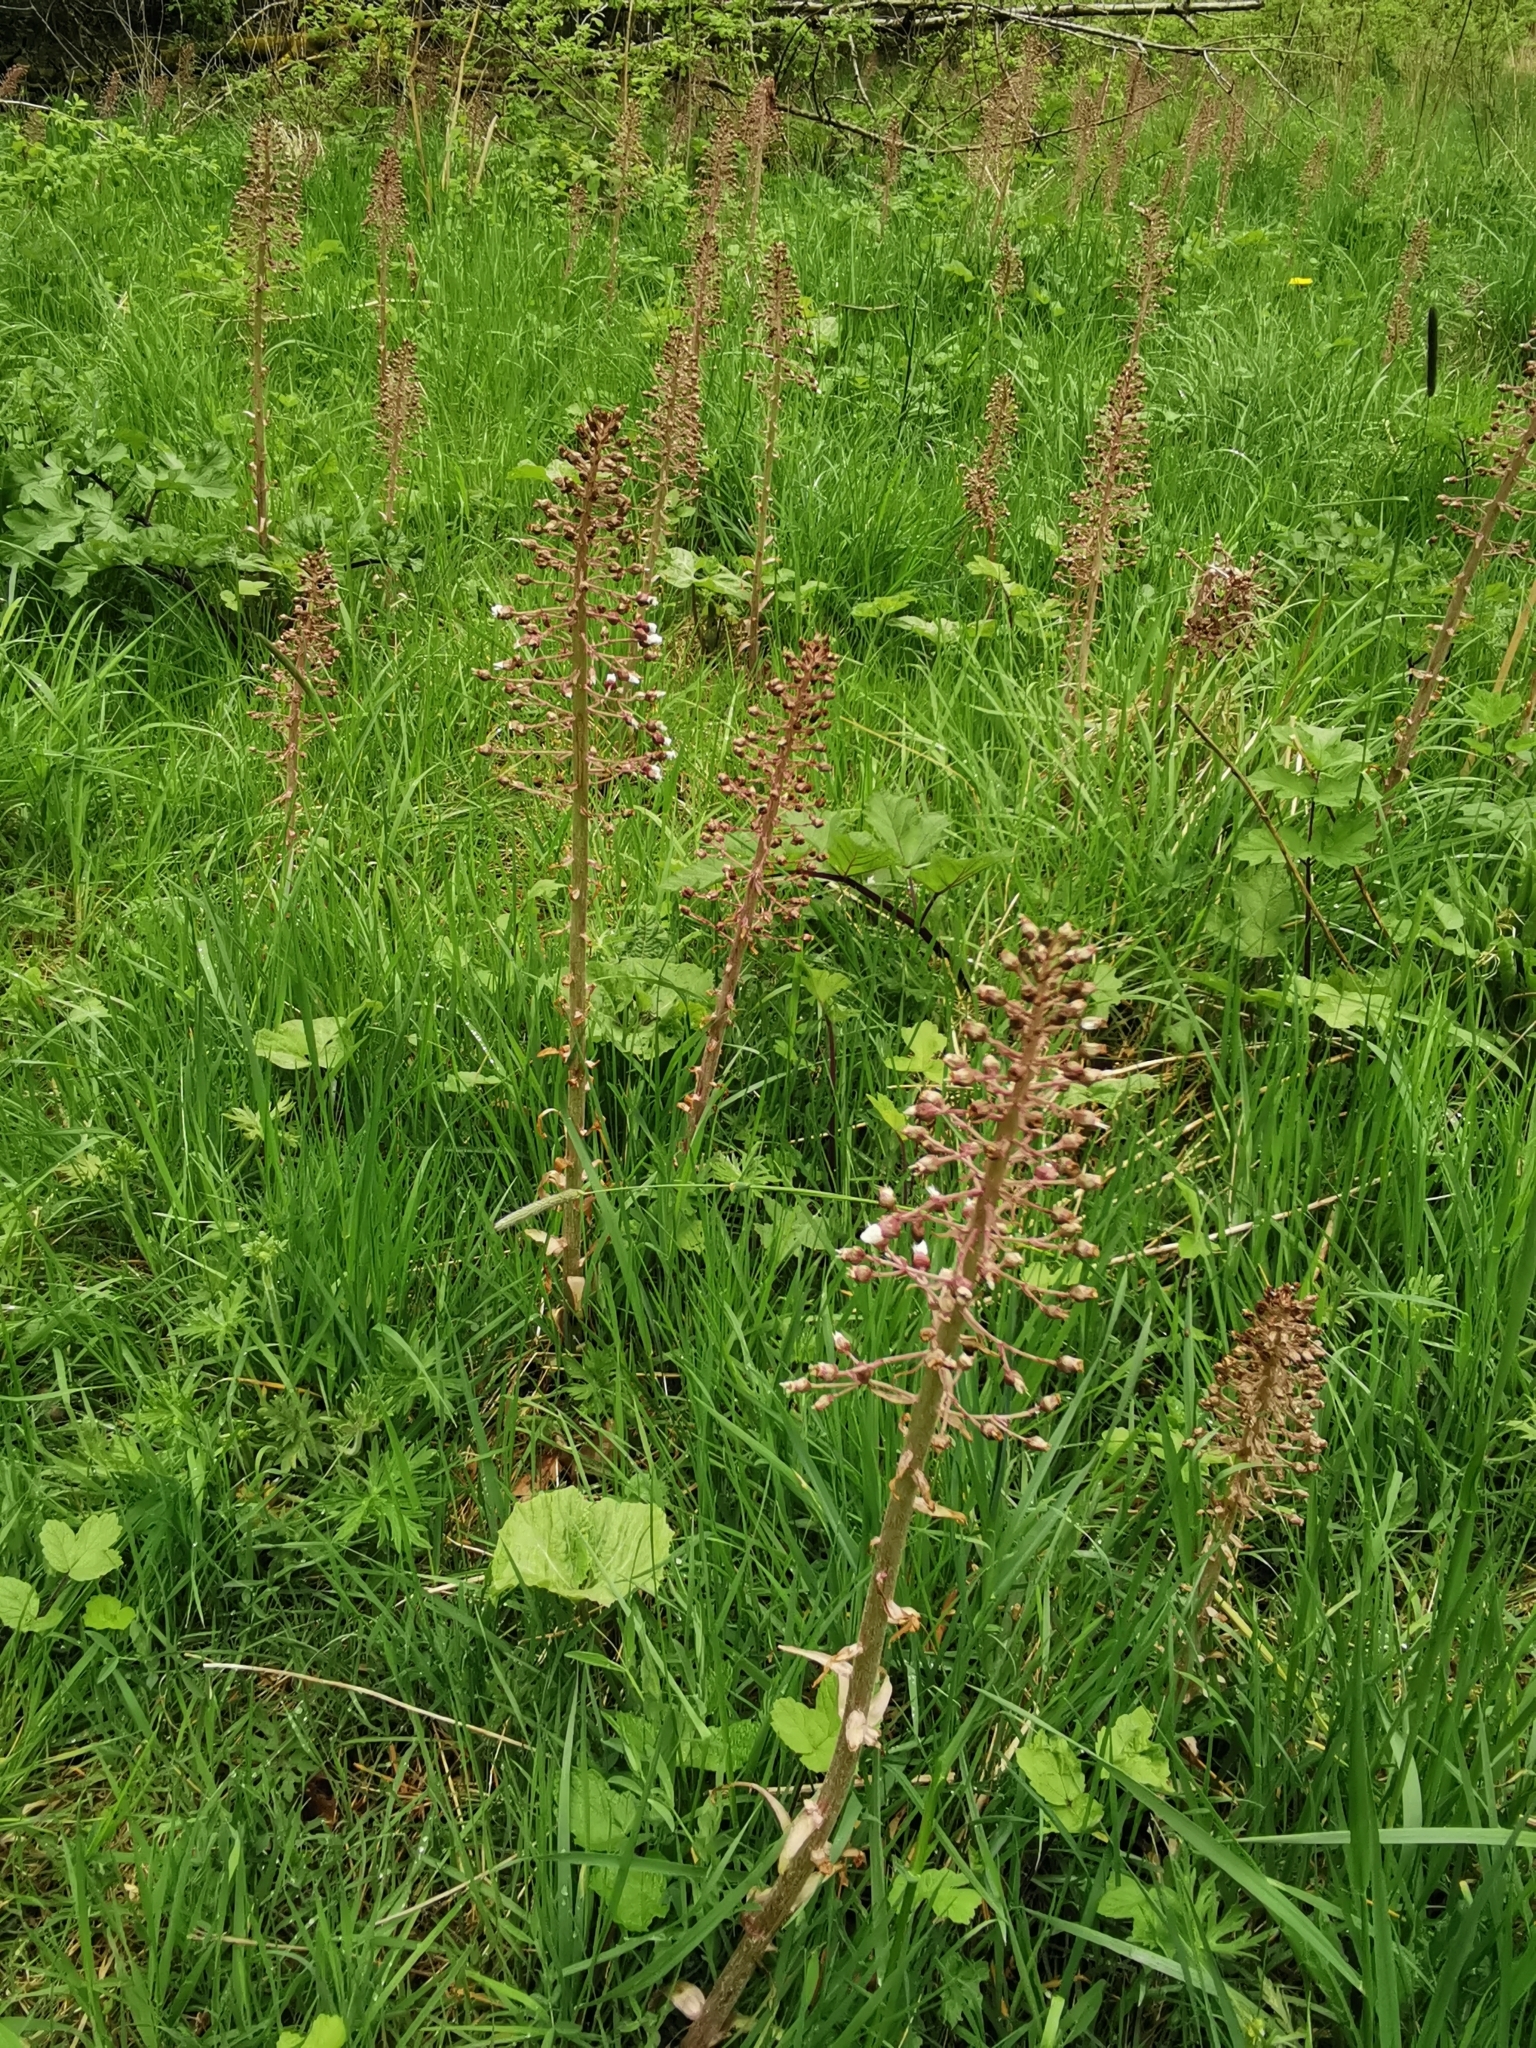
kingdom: Plantae
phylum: Tracheophyta
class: Magnoliopsida
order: Asterales
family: Asteraceae
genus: Petasites
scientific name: Petasites hybridus
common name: Butterbur
